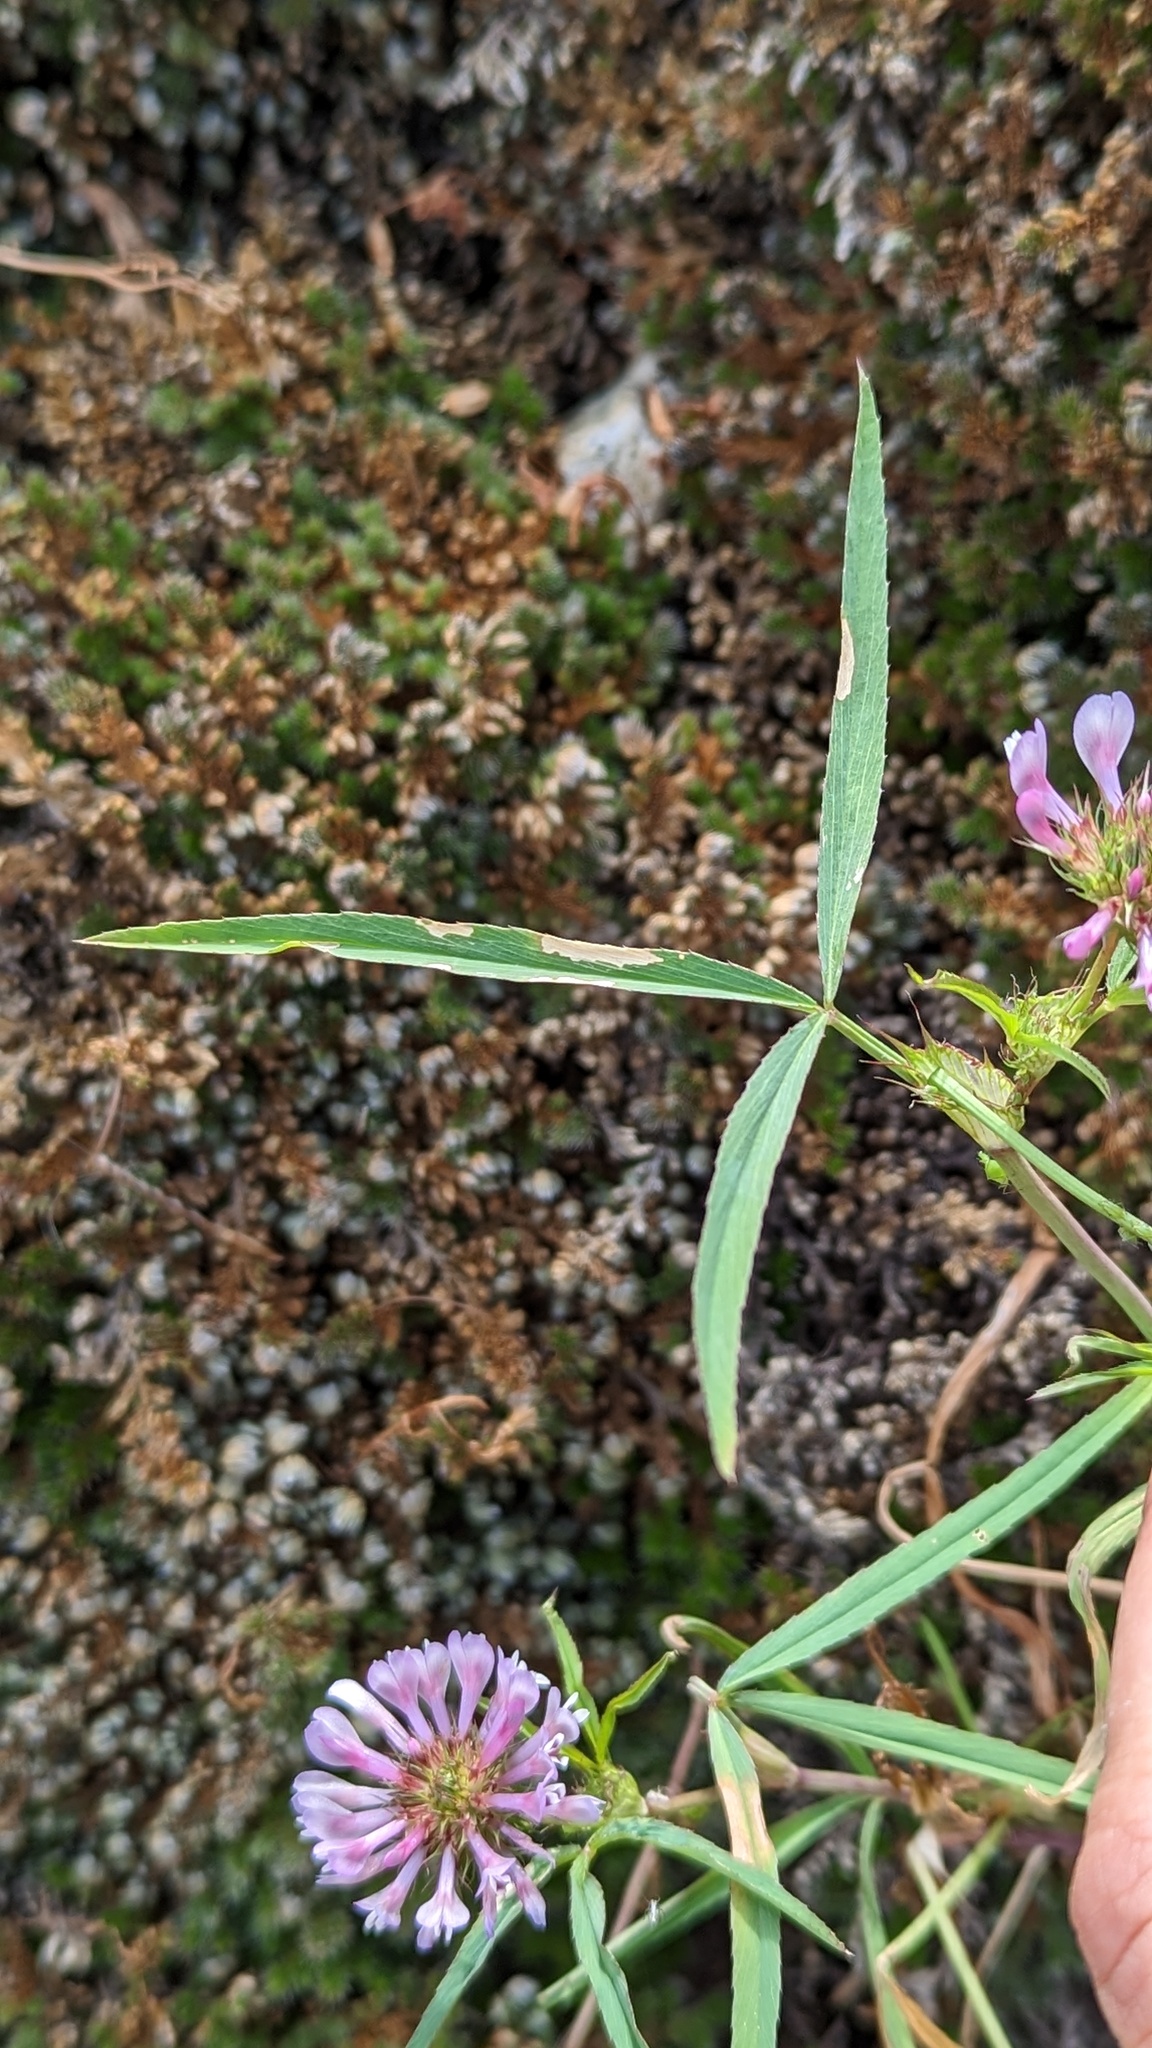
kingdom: Plantae
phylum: Tracheophyta
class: Magnoliopsida
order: Fabales
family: Fabaceae
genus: Trifolium
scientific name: Trifolium willdenovii
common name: Tomcat clover
